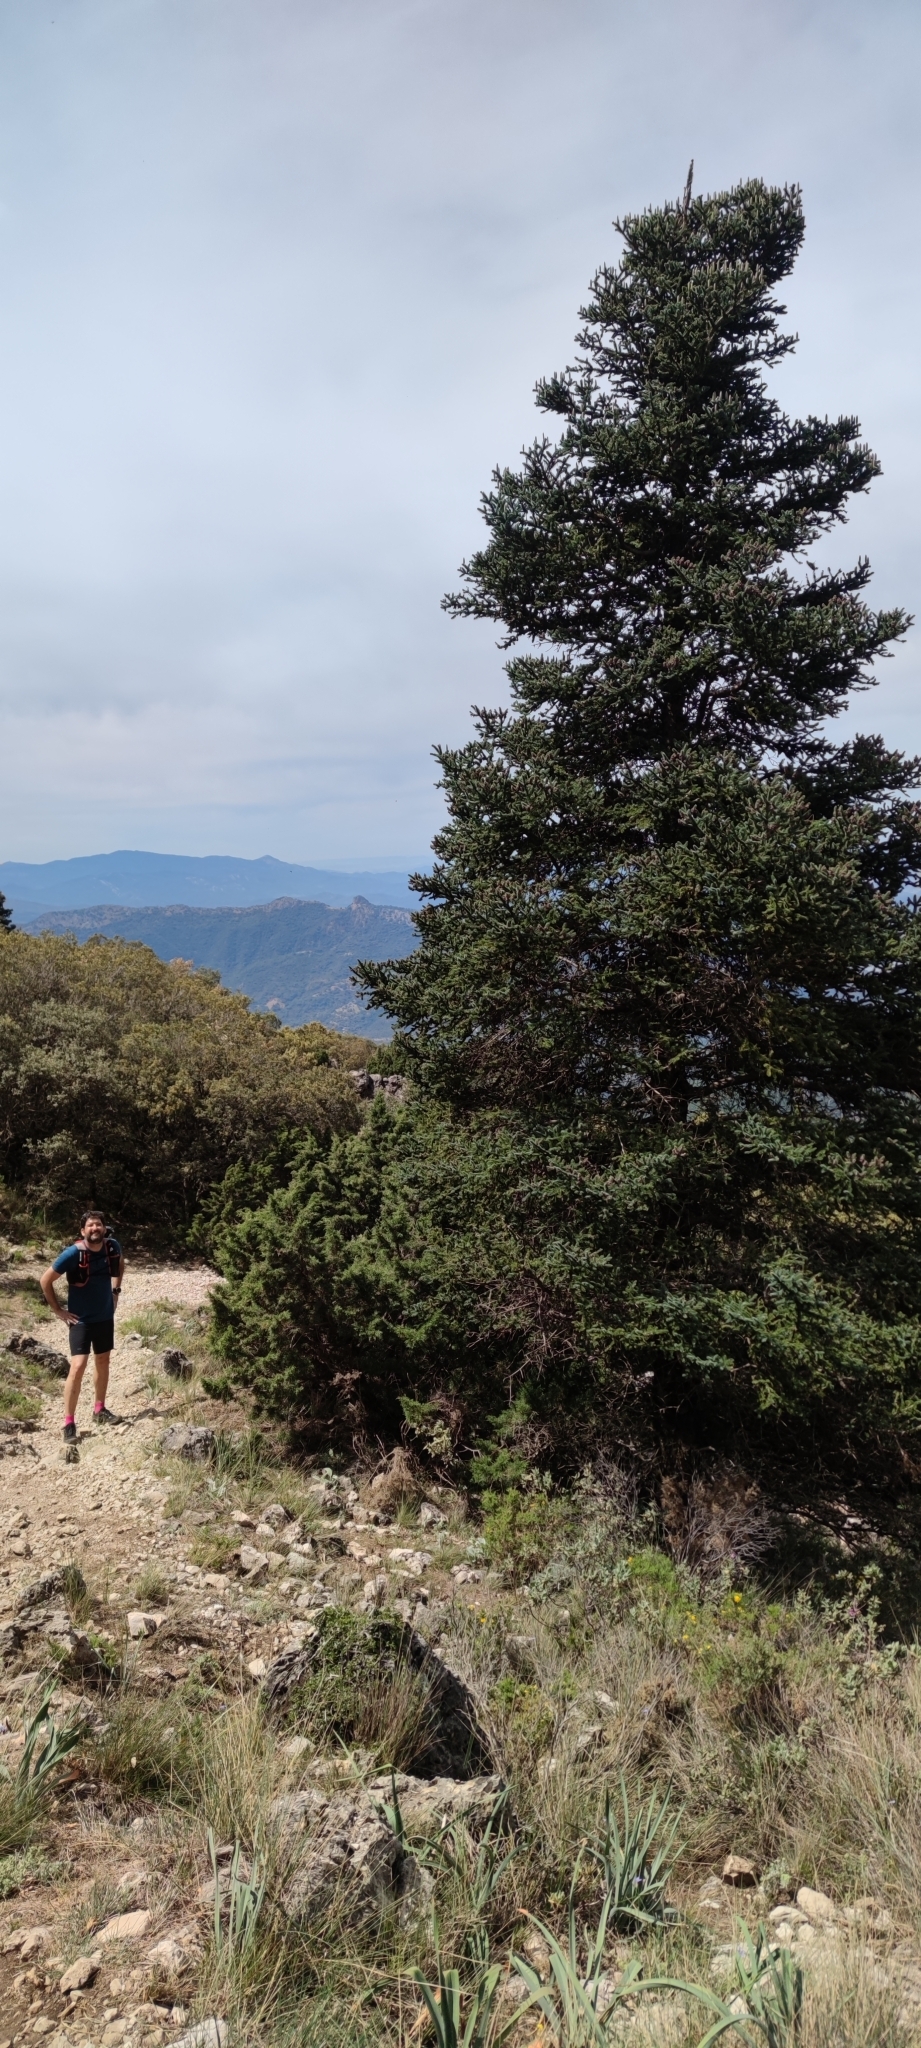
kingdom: Plantae
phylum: Tracheophyta
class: Pinopsida
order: Pinales
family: Pinaceae
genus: Abies
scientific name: Abies pinsapo
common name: Spanish fir
